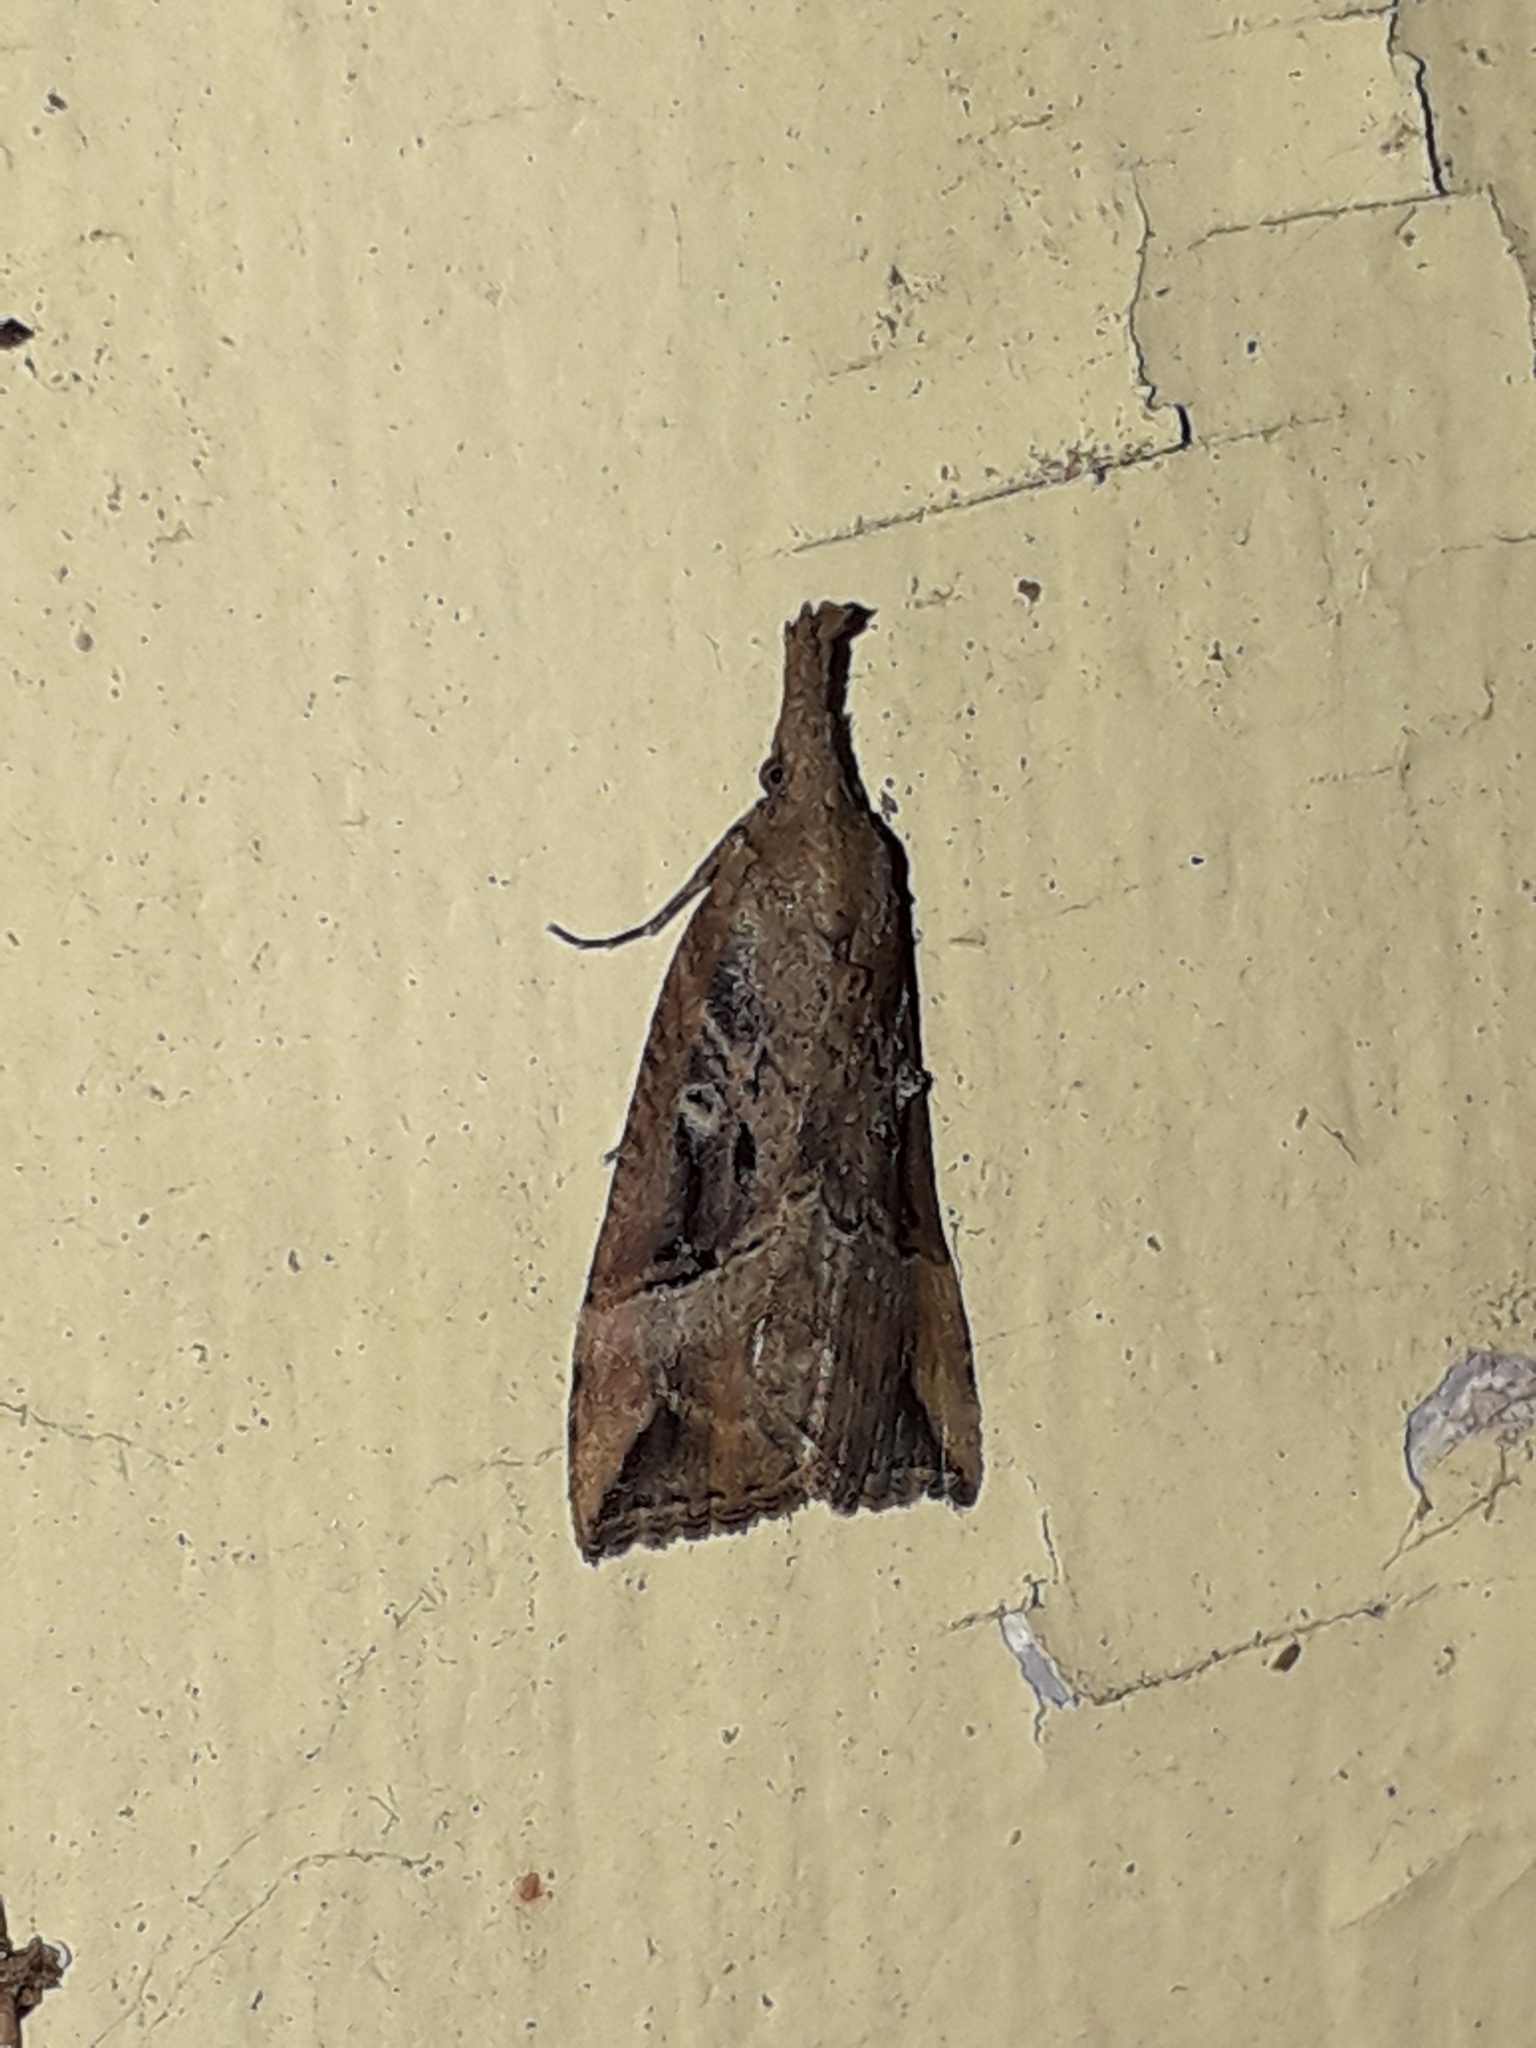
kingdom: Animalia
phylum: Arthropoda
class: Insecta
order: Lepidoptera
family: Erebidae
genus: Hypena
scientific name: Hypena rostralis
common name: Buttoned snout
